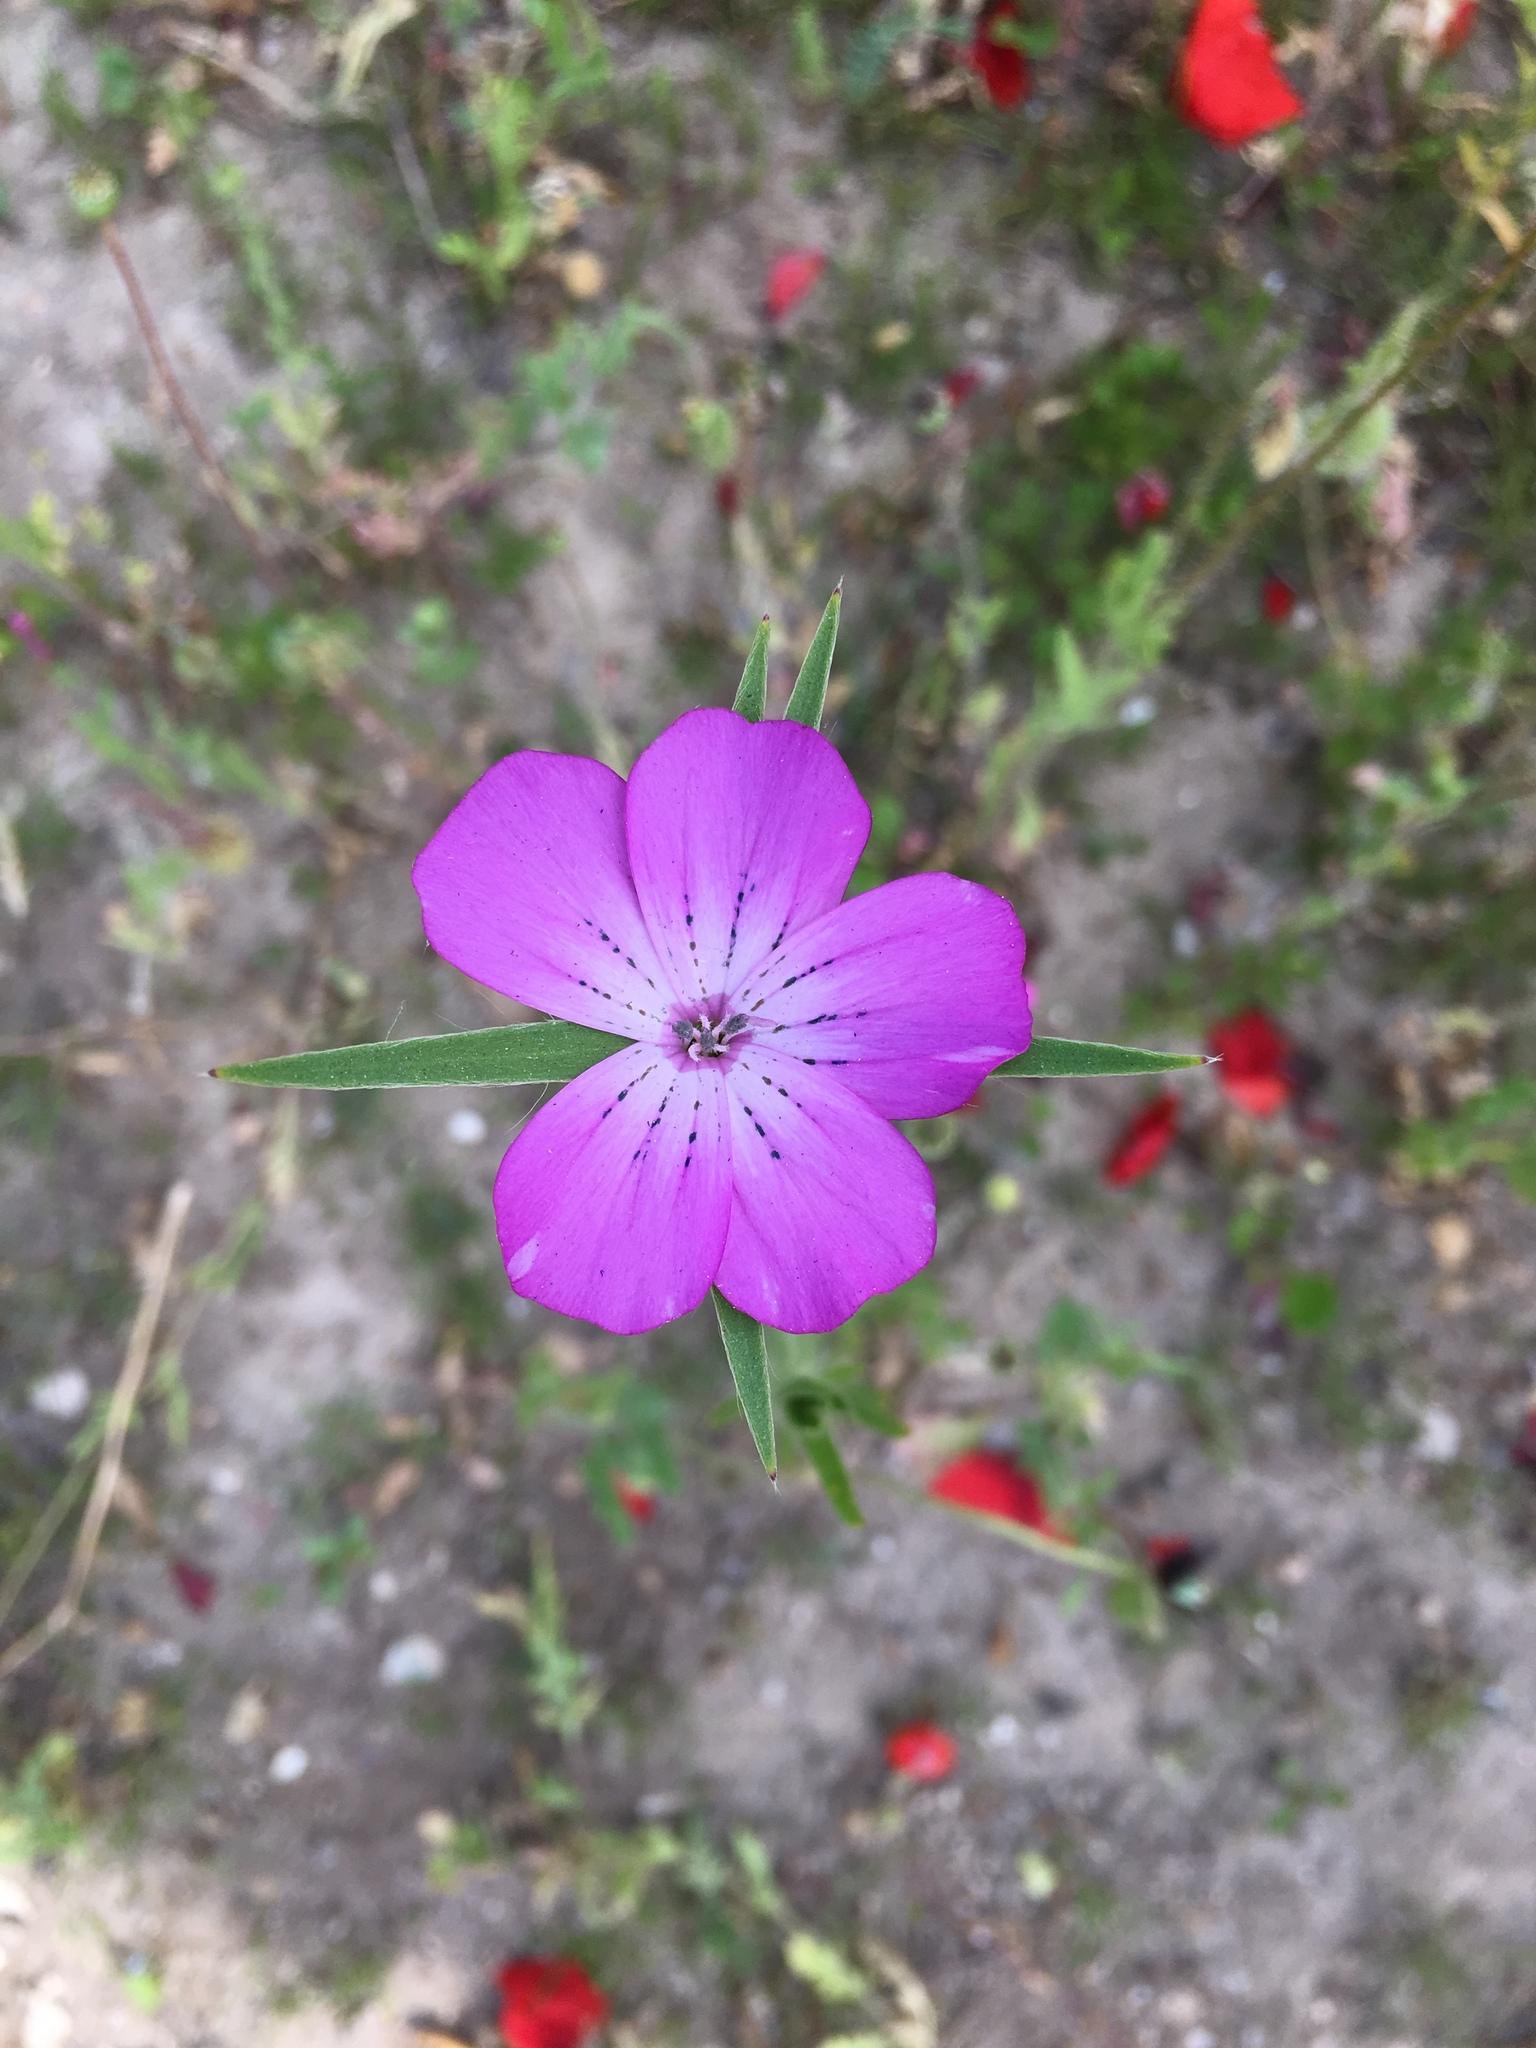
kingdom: Plantae
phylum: Tracheophyta
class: Magnoliopsida
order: Caryophyllales
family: Caryophyllaceae
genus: Agrostemma
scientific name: Agrostemma githago
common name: Common corncockle
